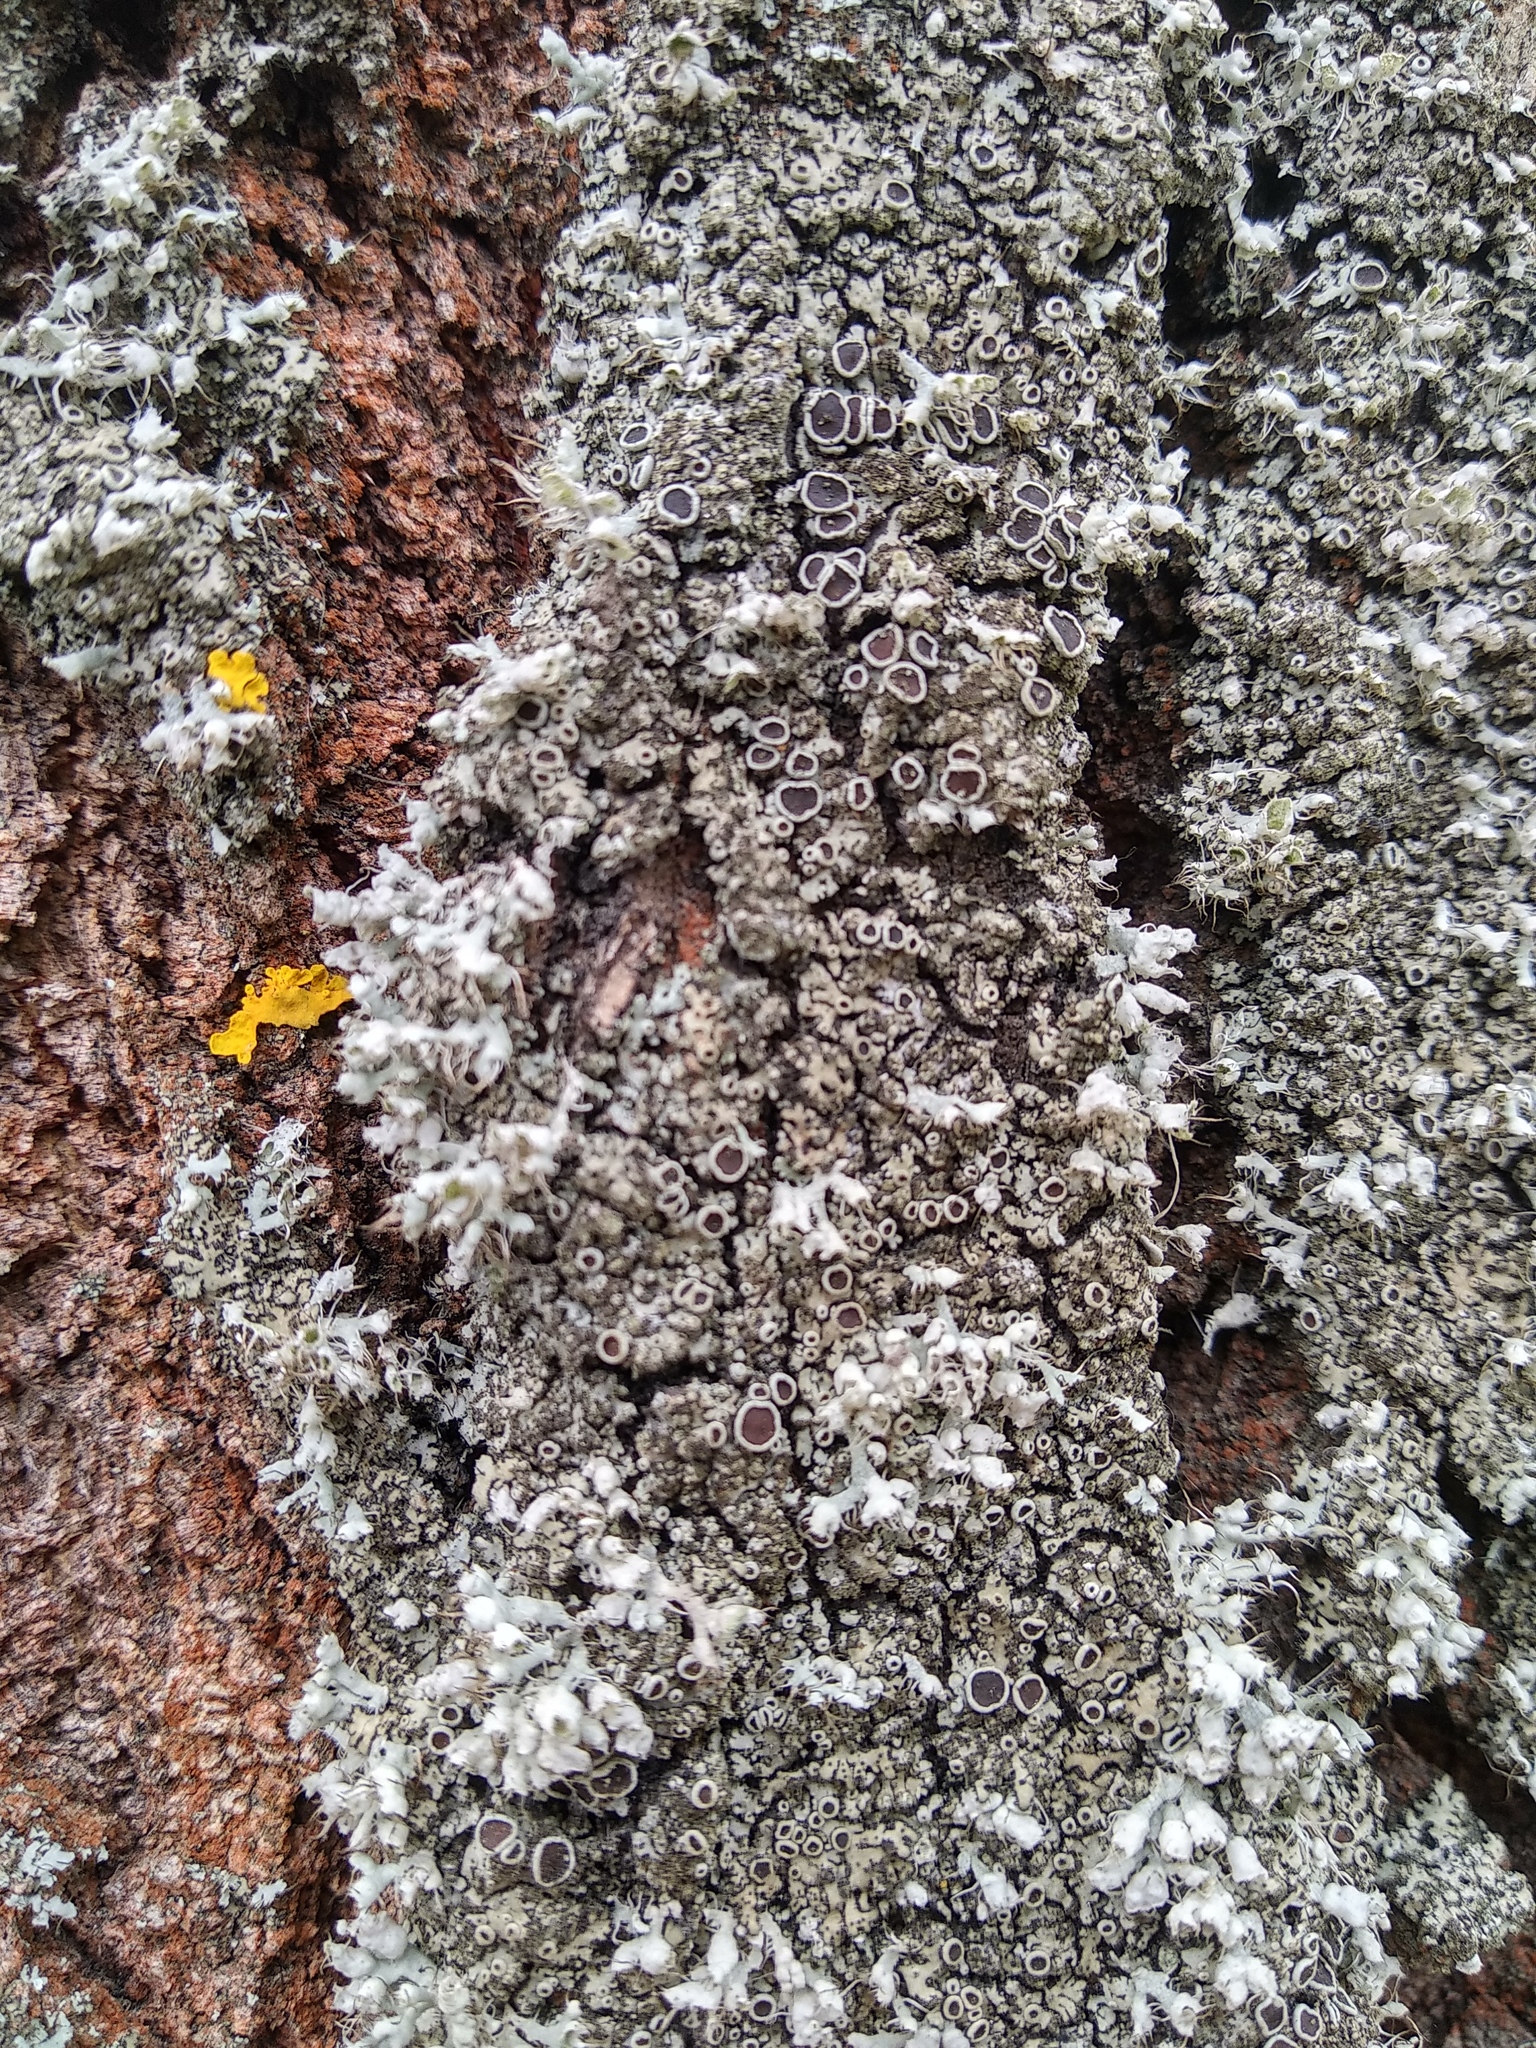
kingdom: Fungi
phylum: Ascomycota
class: Lecanoromycetes
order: Caliciales
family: Physciaceae
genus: Phaeophyscia
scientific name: Phaeophyscia orbicularis
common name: Mealy shadow lichen
